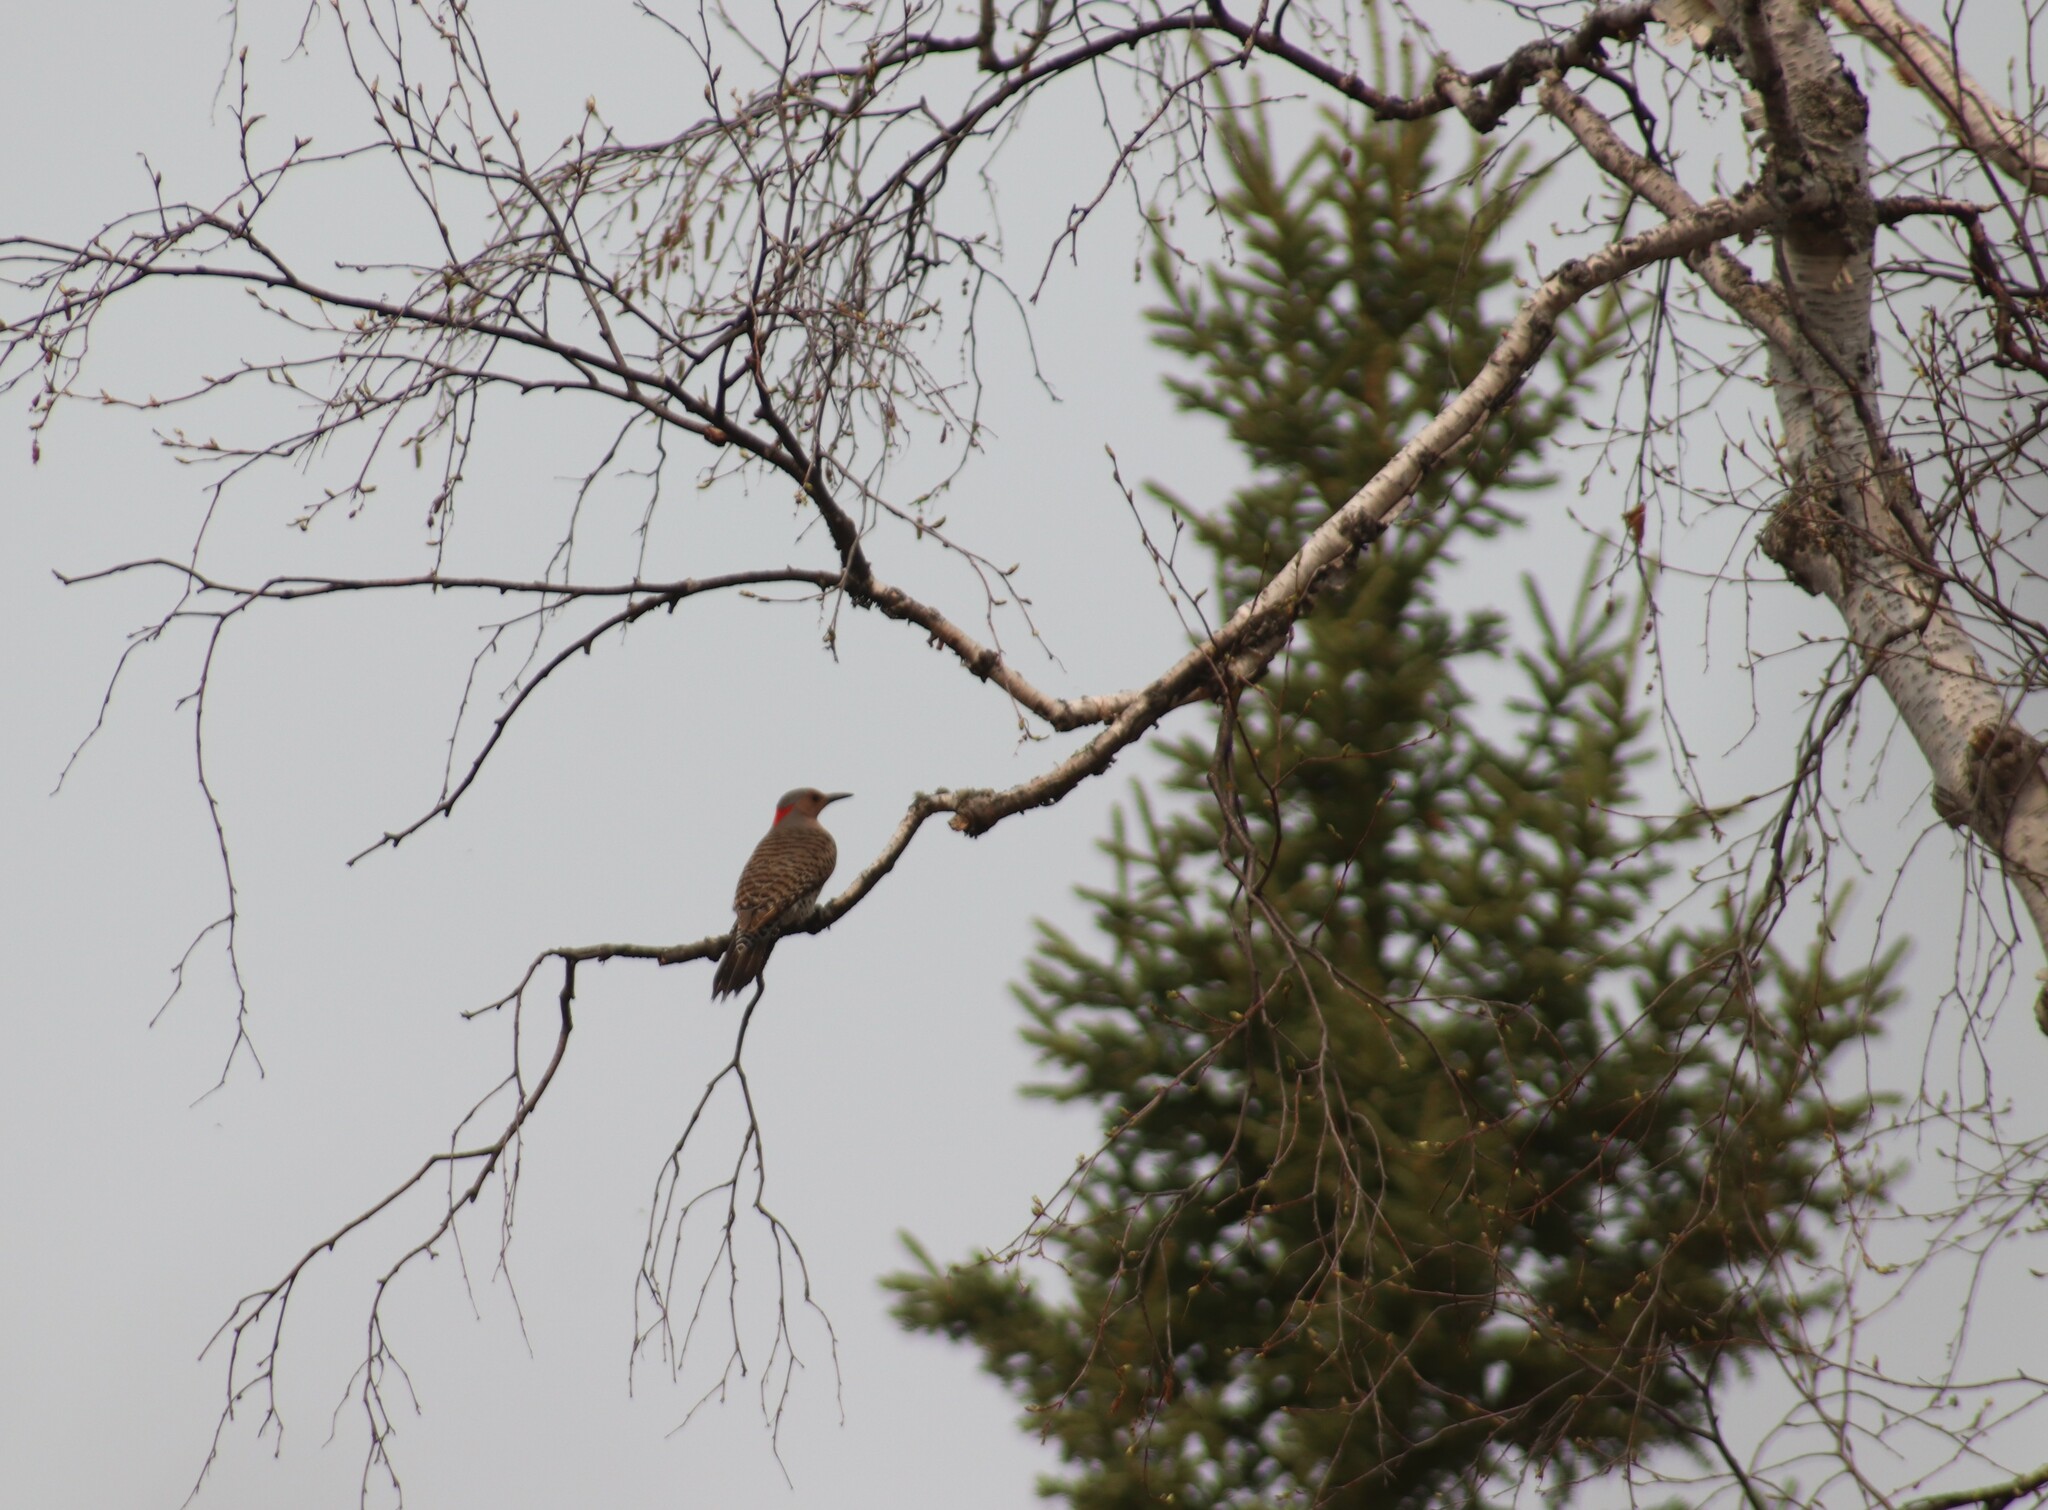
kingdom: Animalia
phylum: Chordata
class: Aves
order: Piciformes
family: Picidae
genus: Colaptes
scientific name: Colaptes auratus
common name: Northern flicker
